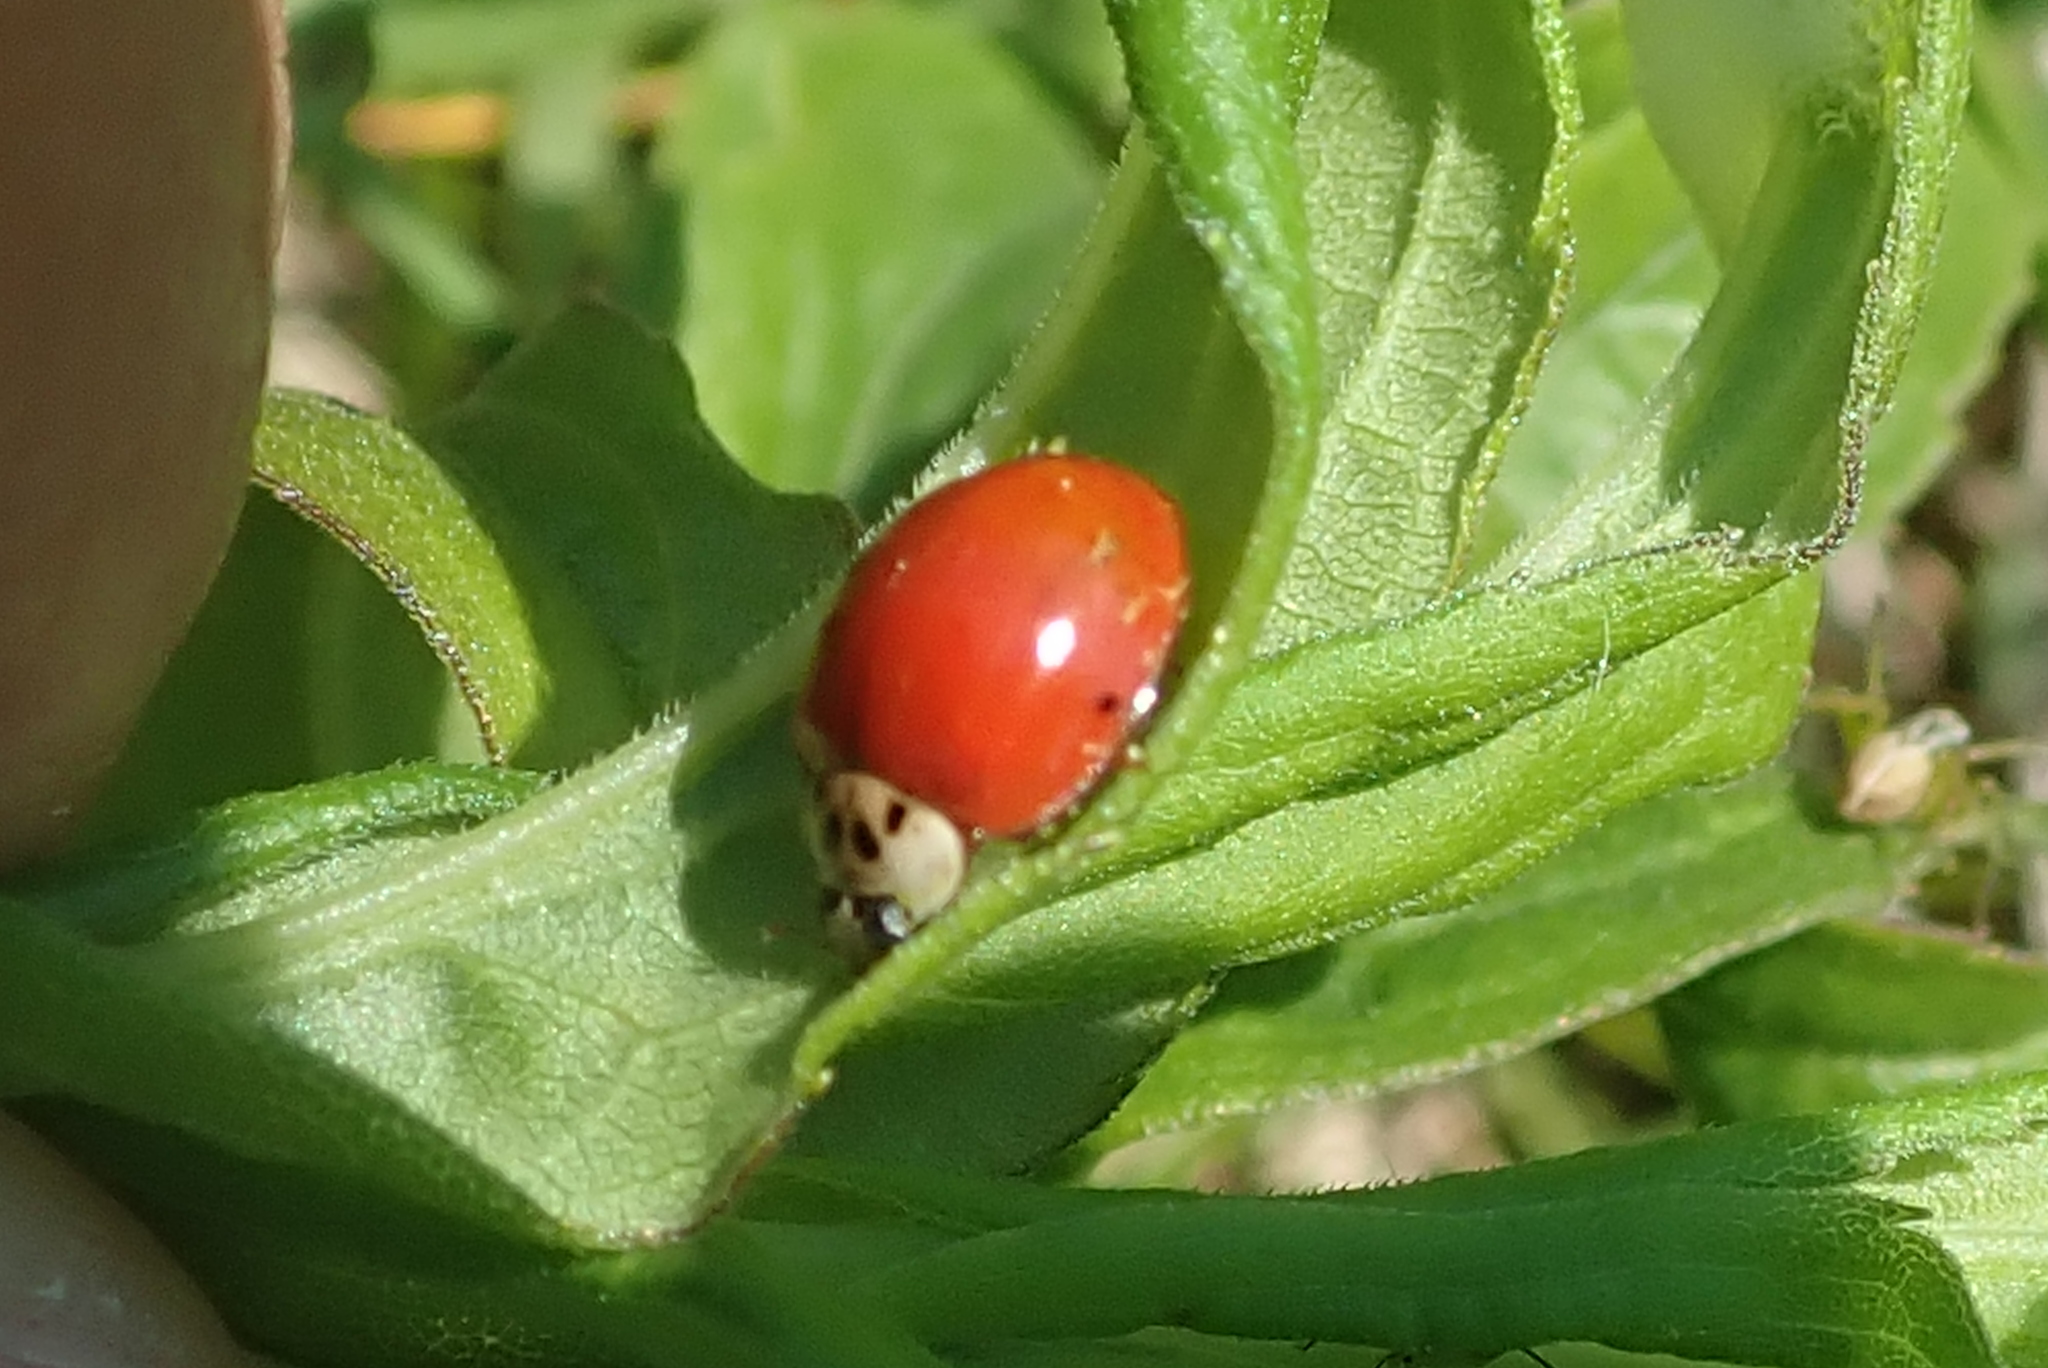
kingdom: Animalia
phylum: Arthropoda
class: Insecta
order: Coleoptera
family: Coccinellidae
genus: Harmonia
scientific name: Harmonia axyridis
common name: Harlequin ladybird
